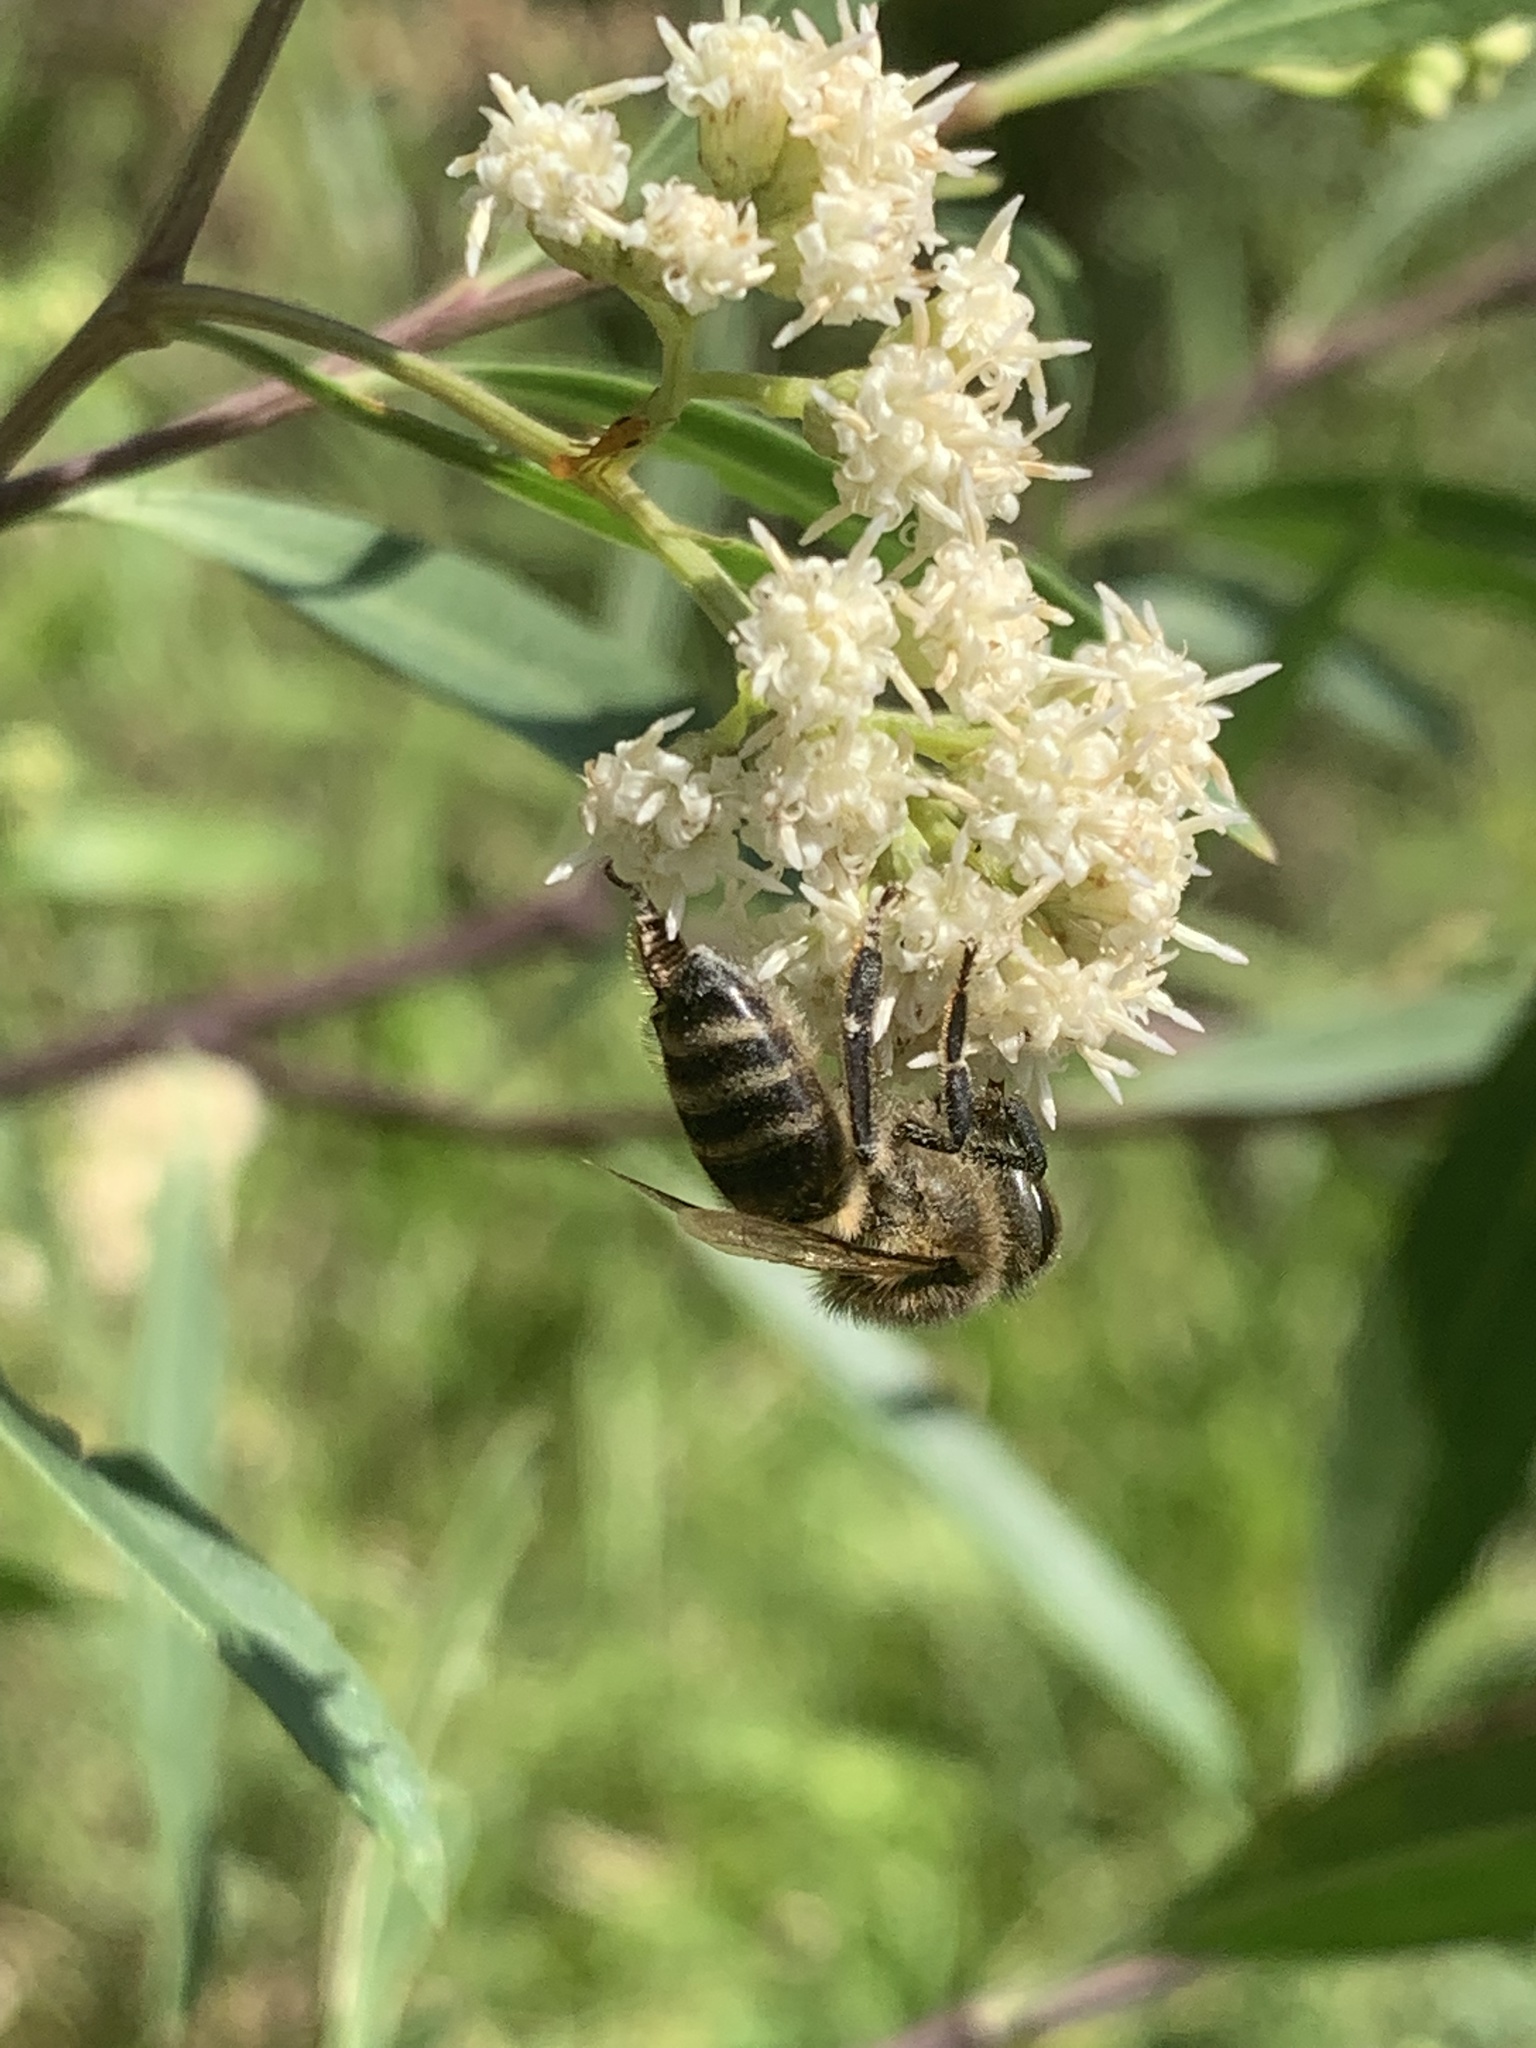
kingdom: Animalia
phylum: Arthropoda
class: Insecta
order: Hymenoptera
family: Apidae
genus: Apis
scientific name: Apis mellifera
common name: Honey bee
